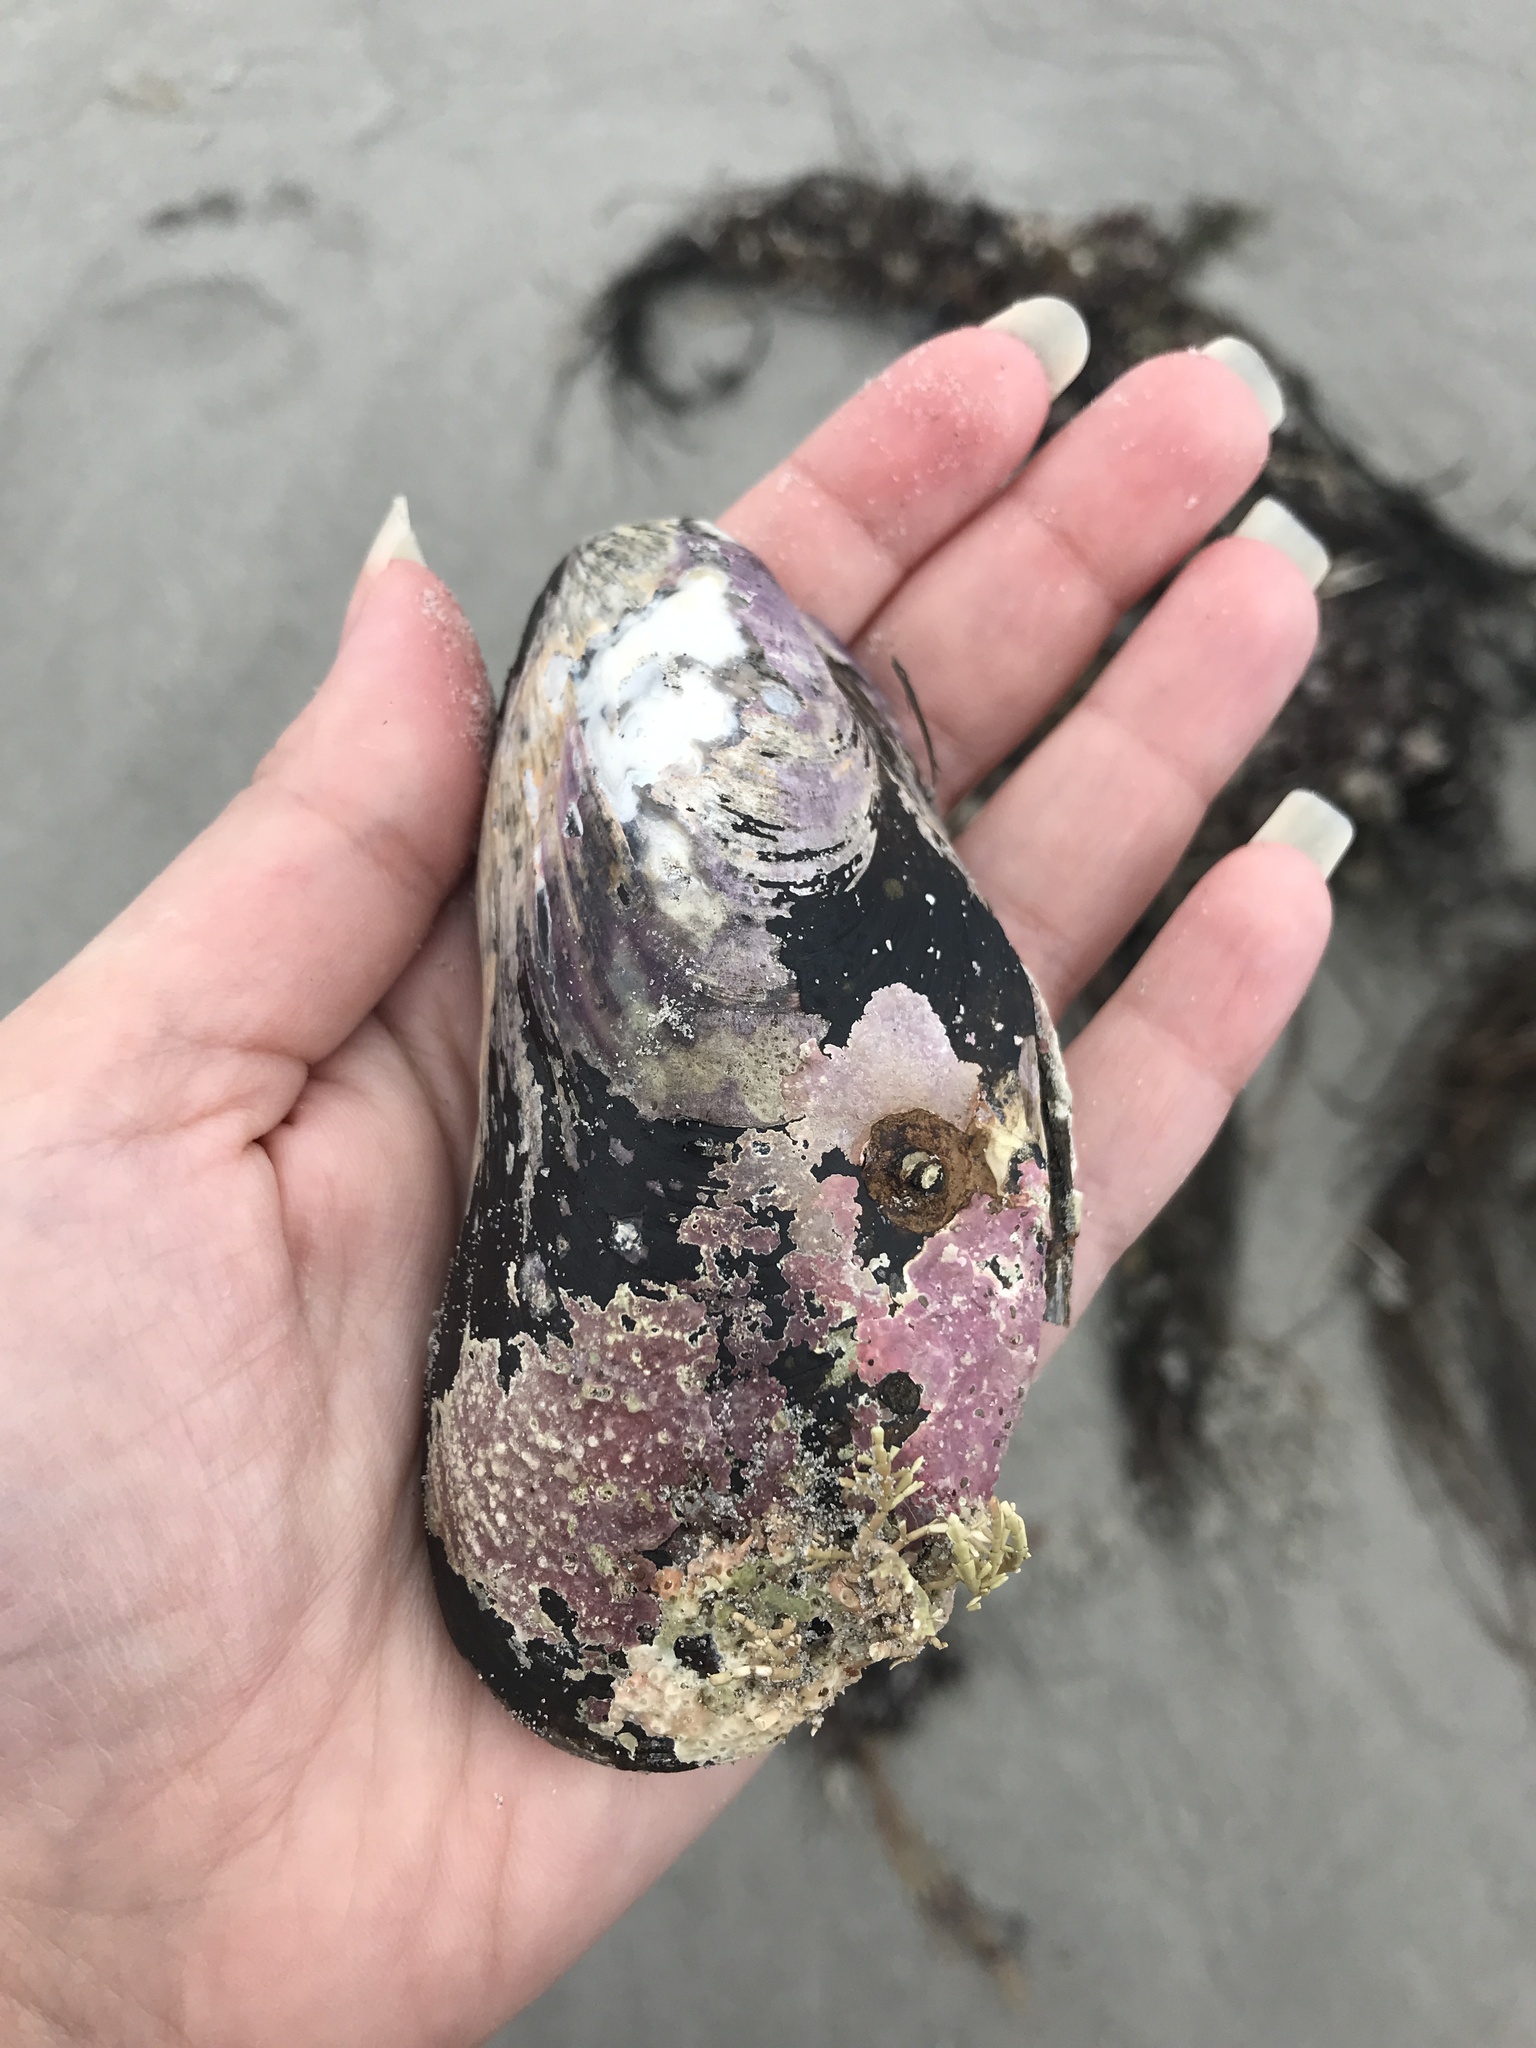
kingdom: Animalia
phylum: Mollusca
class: Bivalvia
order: Mytilida
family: Mytilidae
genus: Modiolus
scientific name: Modiolus modiolus
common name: Horse-mussel
